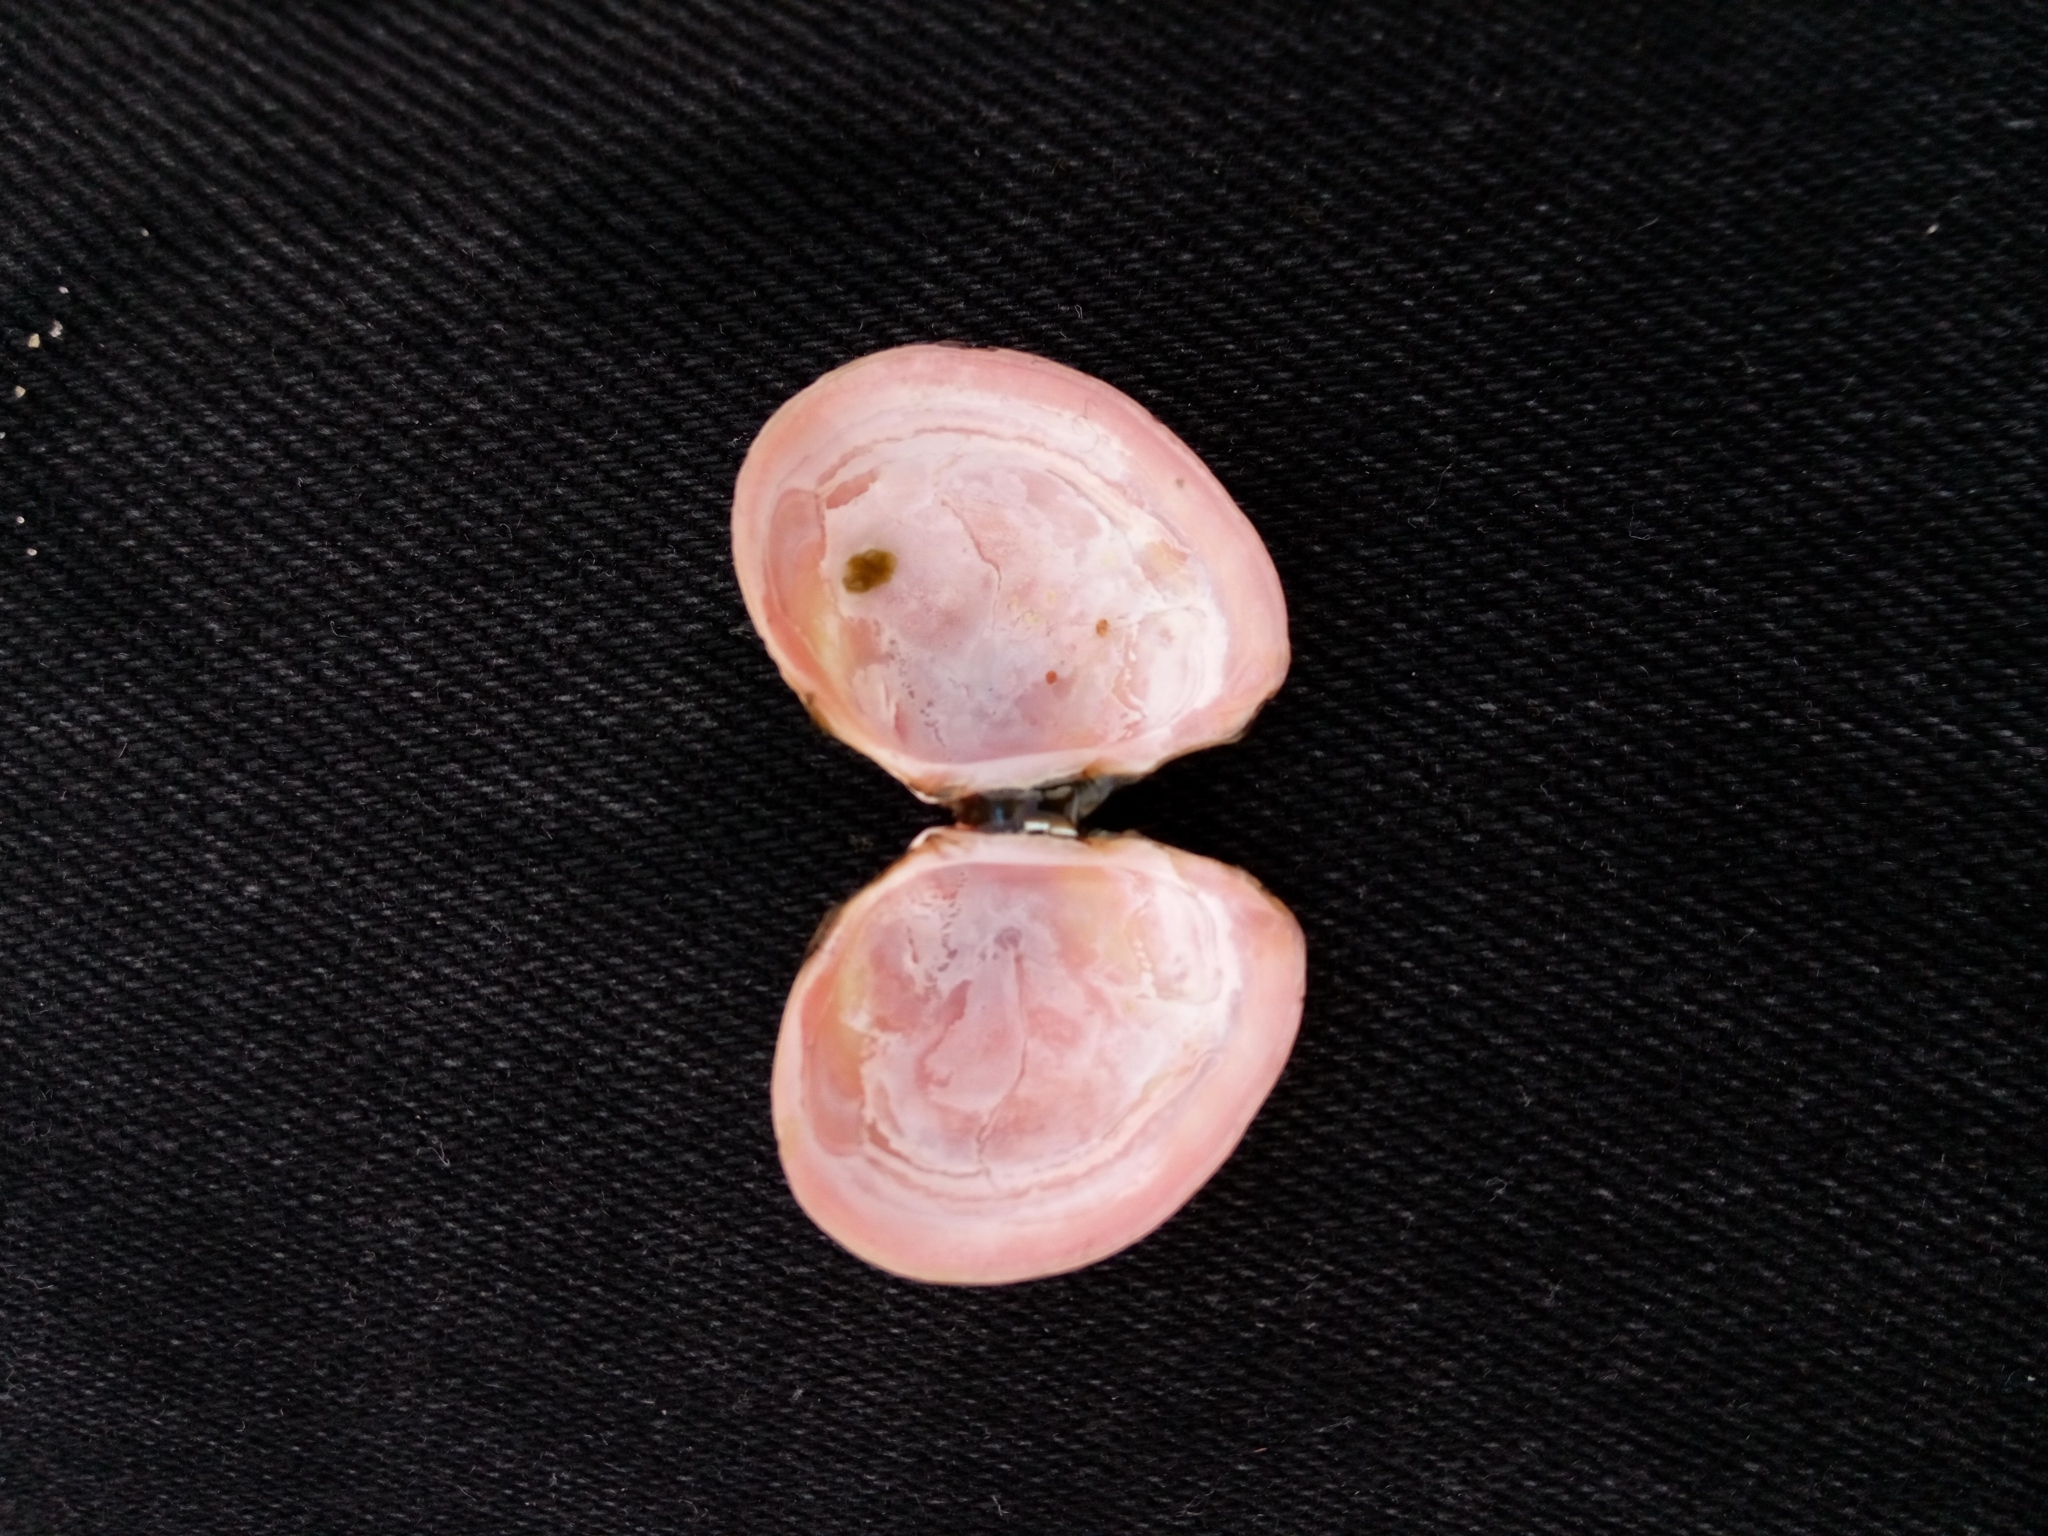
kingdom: Animalia
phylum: Mollusca
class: Bivalvia
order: Cardiida
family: Tellinidae
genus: Macoma
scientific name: Macoma balthica
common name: Baltic tellin
